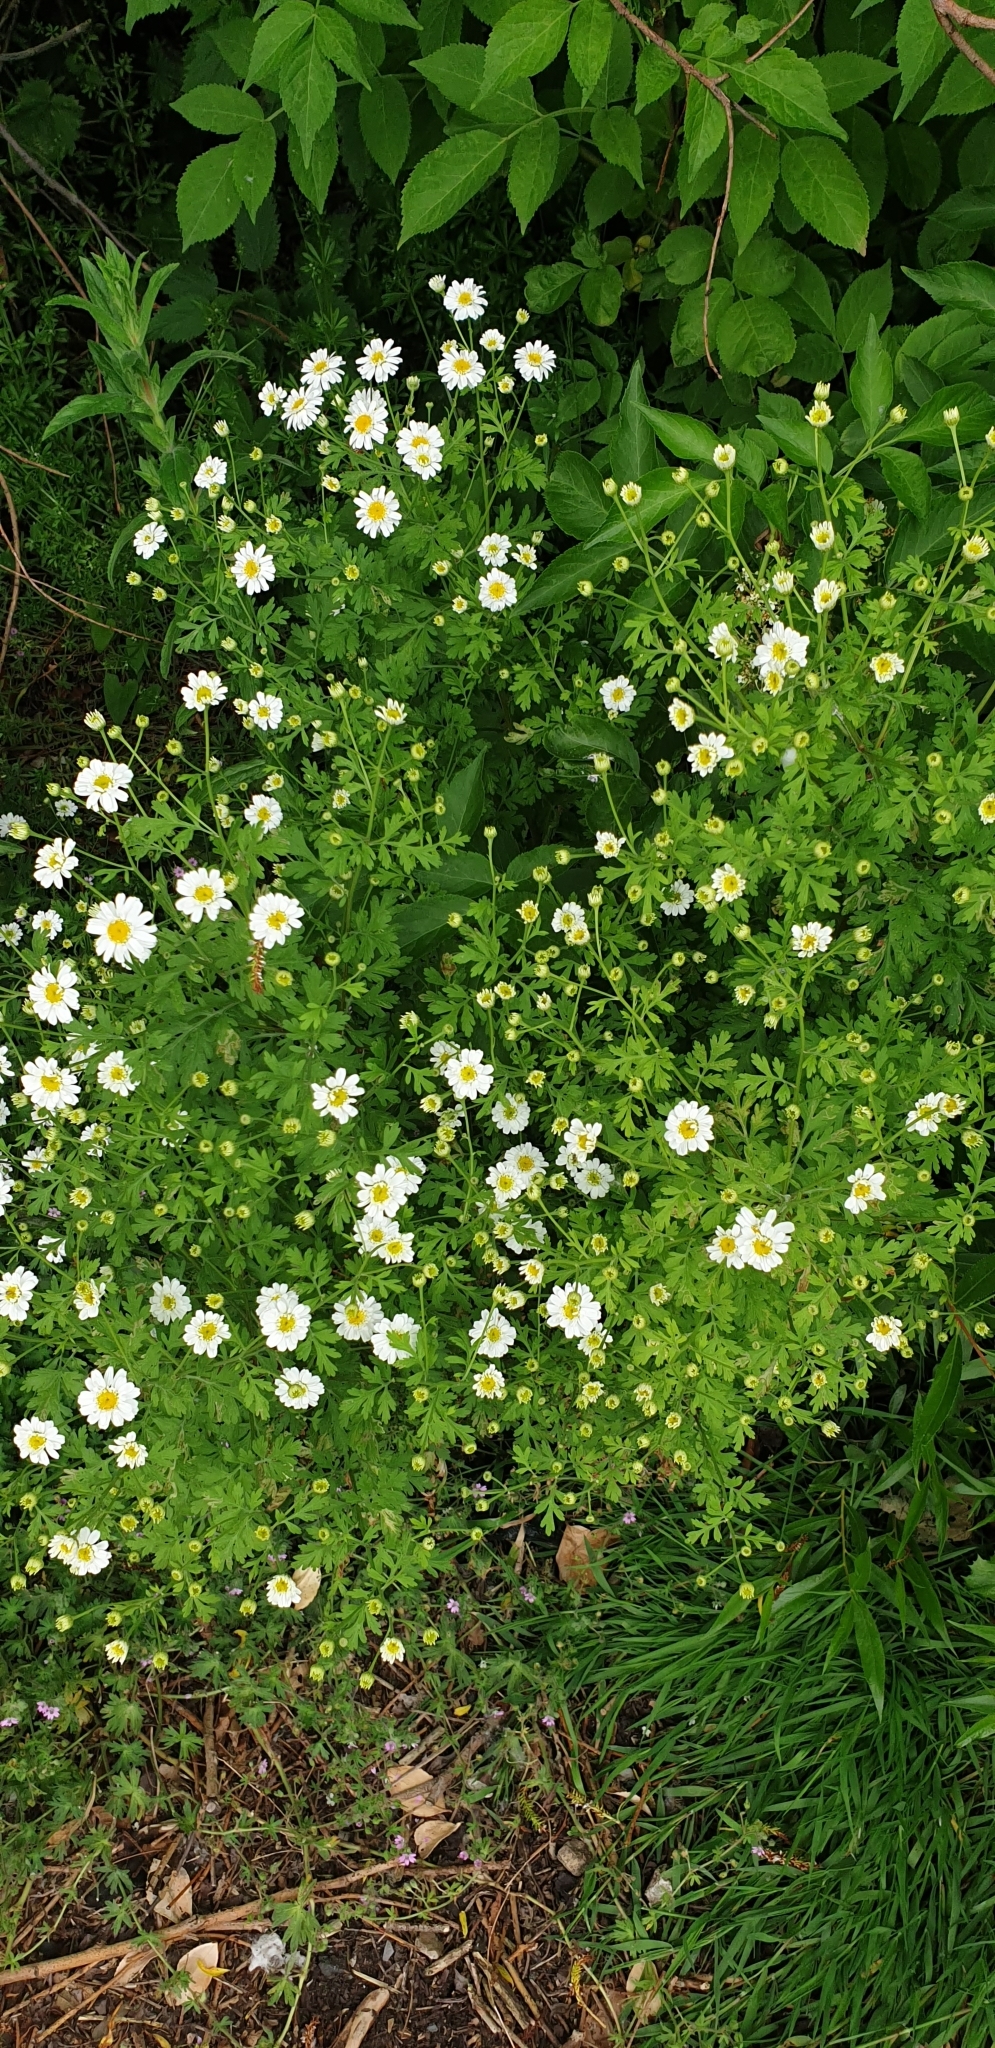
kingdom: Plantae
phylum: Tracheophyta
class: Magnoliopsida
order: Asterales
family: Asteraceae
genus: Tanacetum
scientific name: Tanacetum parthenium
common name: Feverfew
